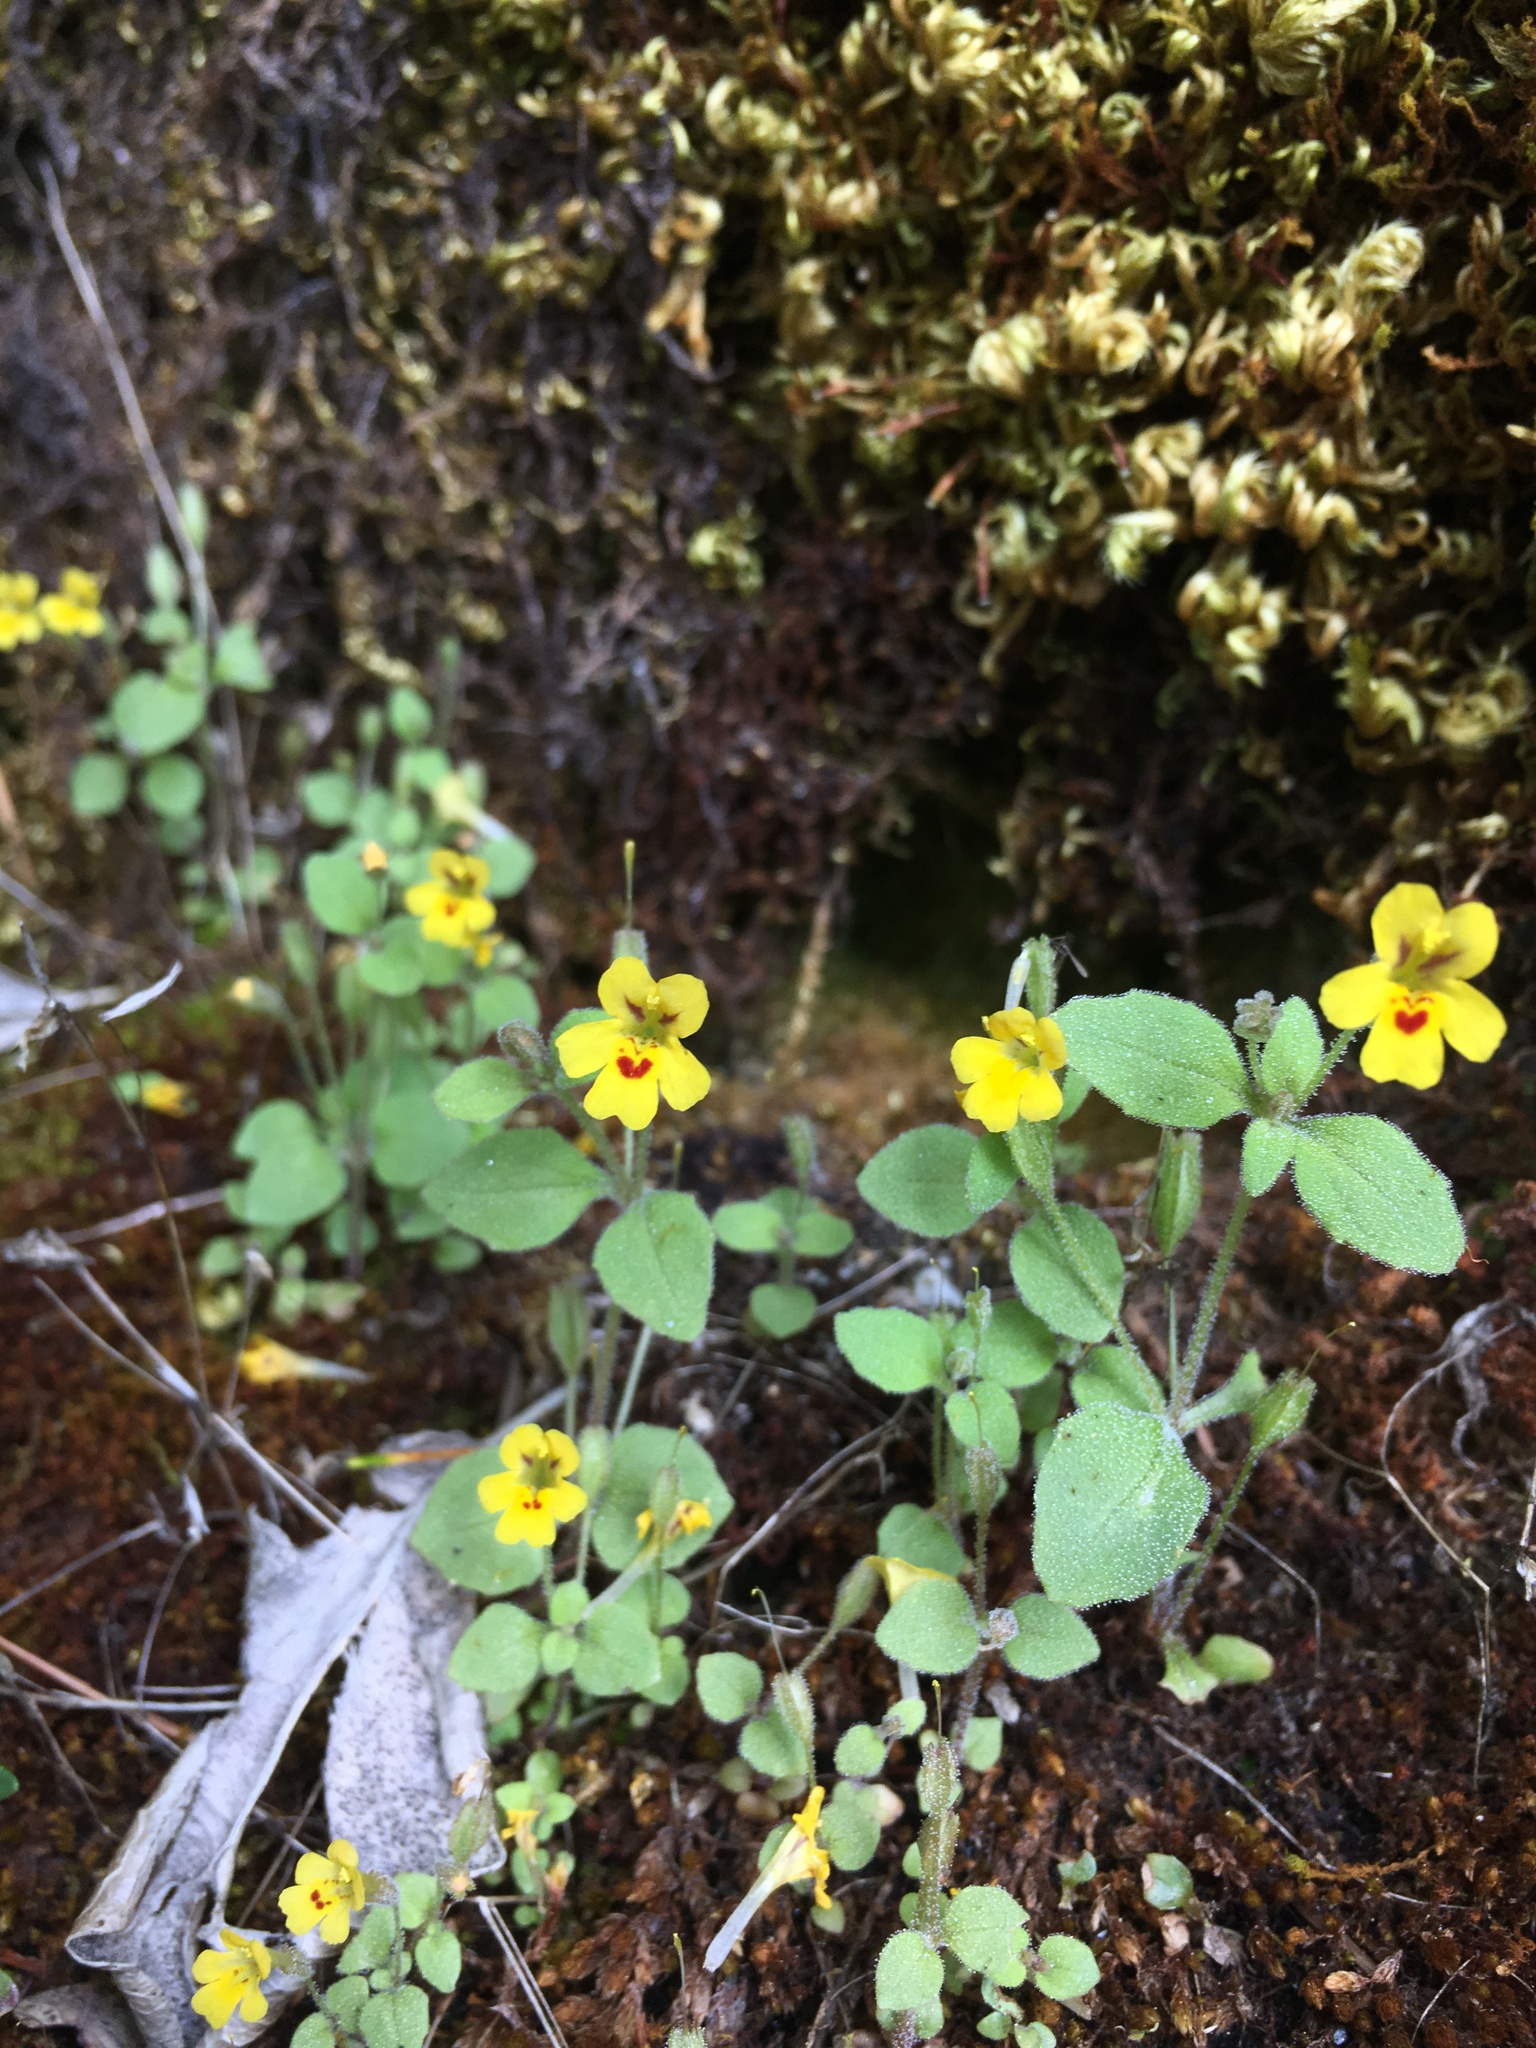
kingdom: Plantae
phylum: Tracheophyta
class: Magnoliopsida
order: Lamiales
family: Phrymaceae
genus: Erythranthe
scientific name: Erythranthe alsinoides
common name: Chickweed monkeyflower
